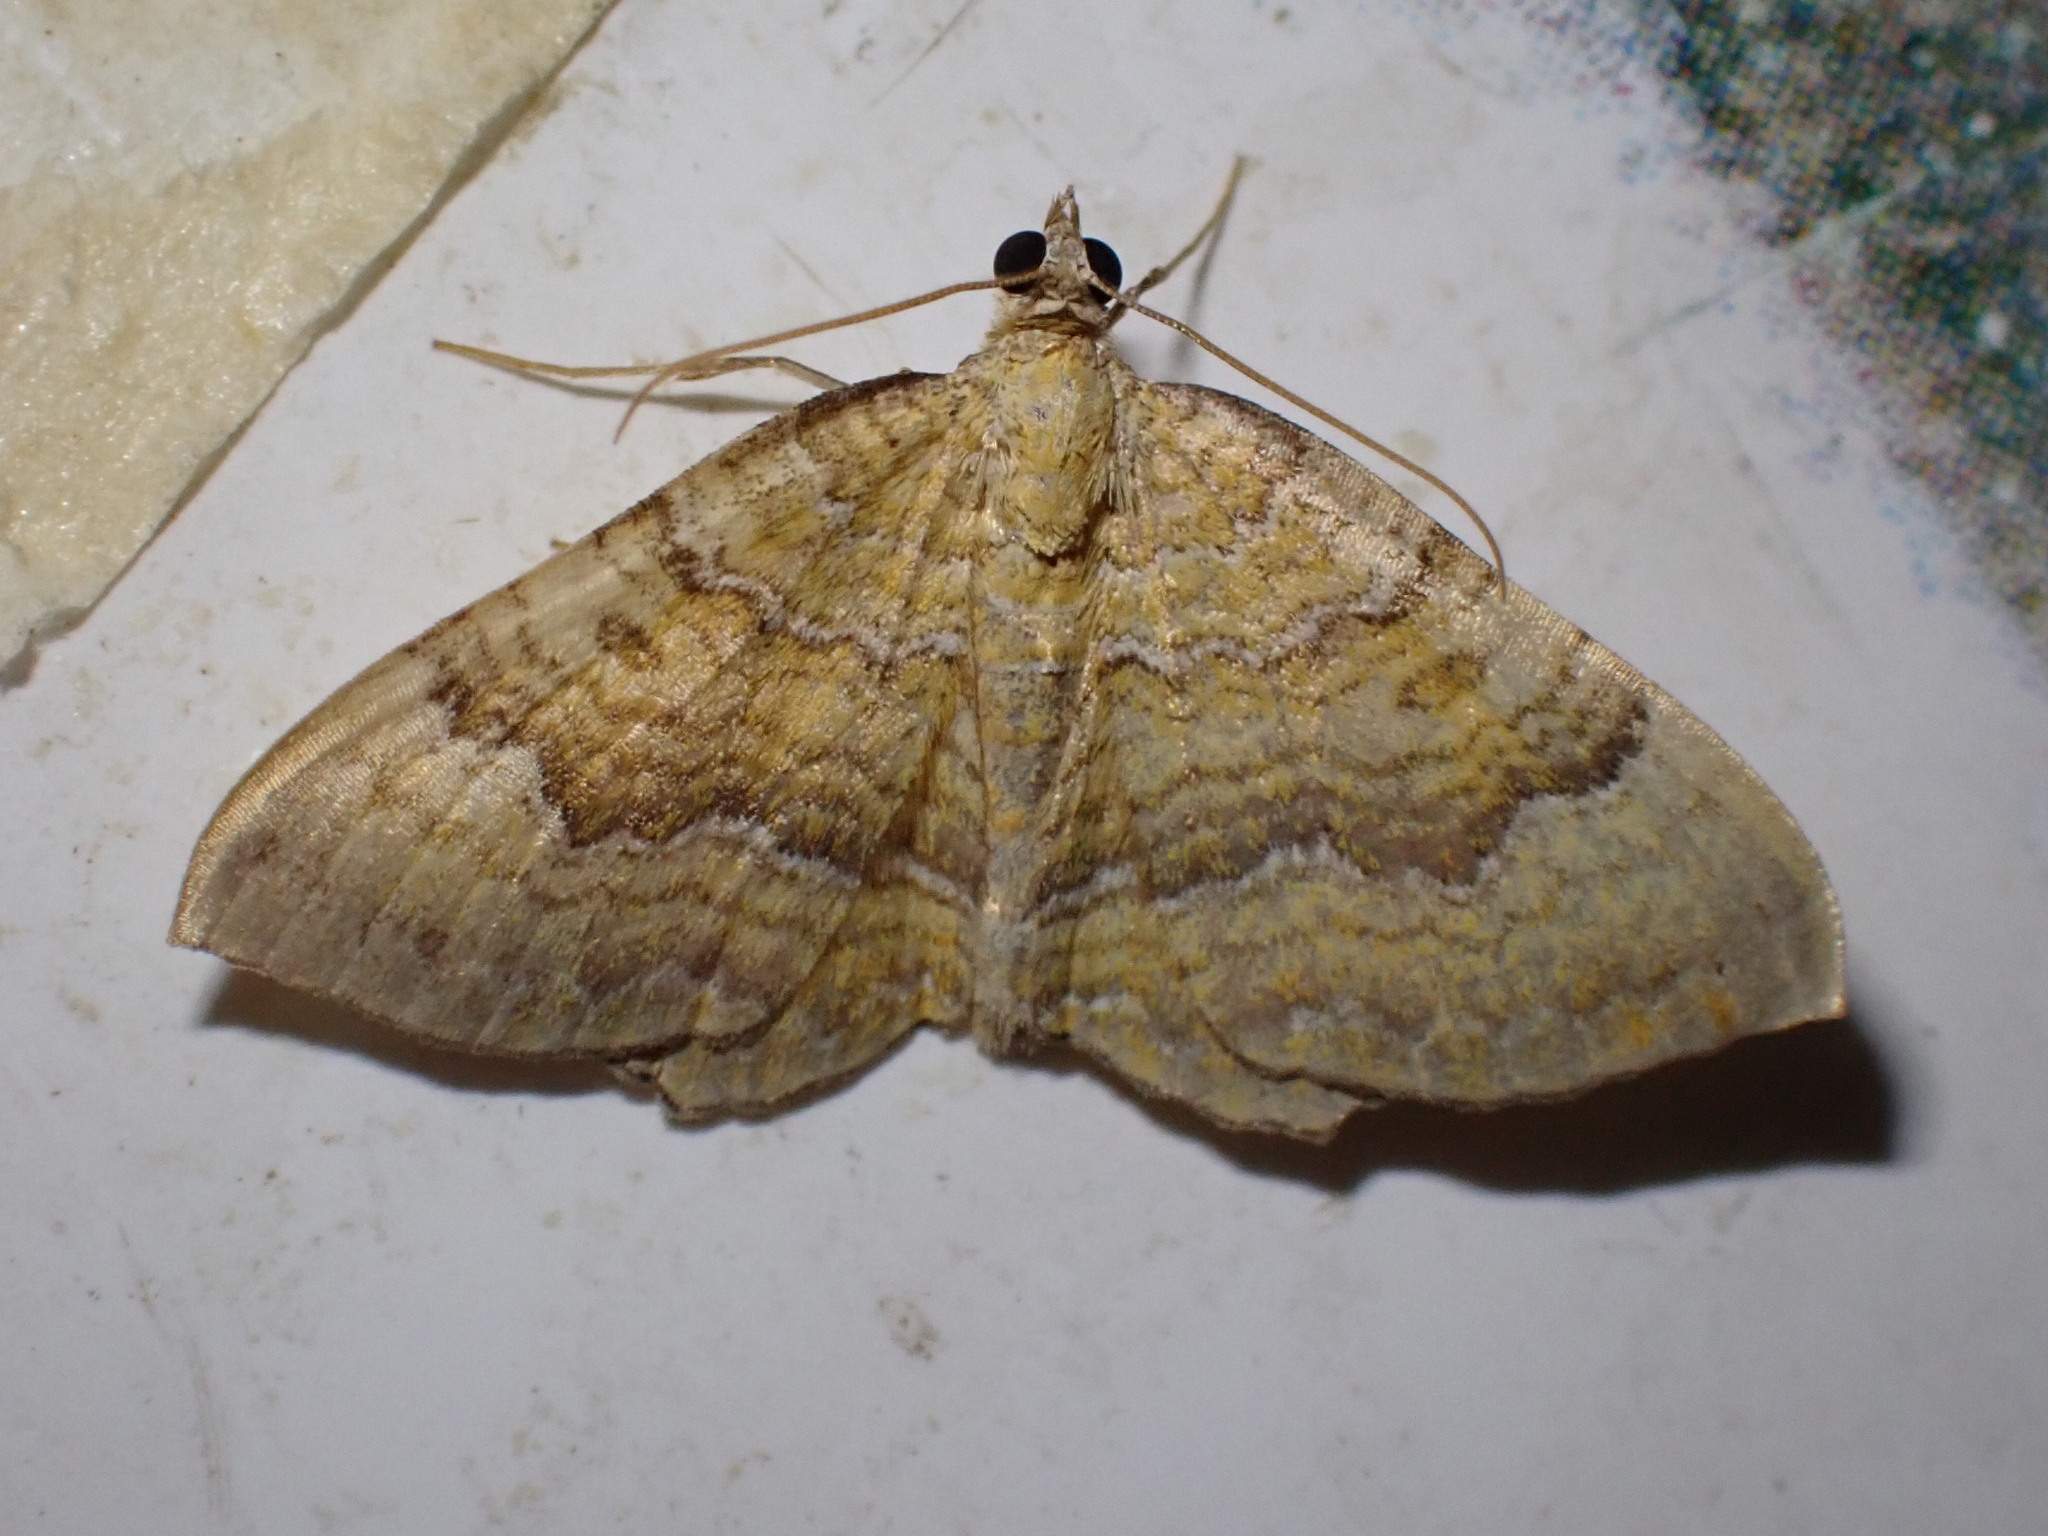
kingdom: Animalia
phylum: Arthropoda
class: Insecta
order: Lepidoptera
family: Geometridae
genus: Camptogramma
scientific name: Camptogramma bilineata
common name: Yellow shell
